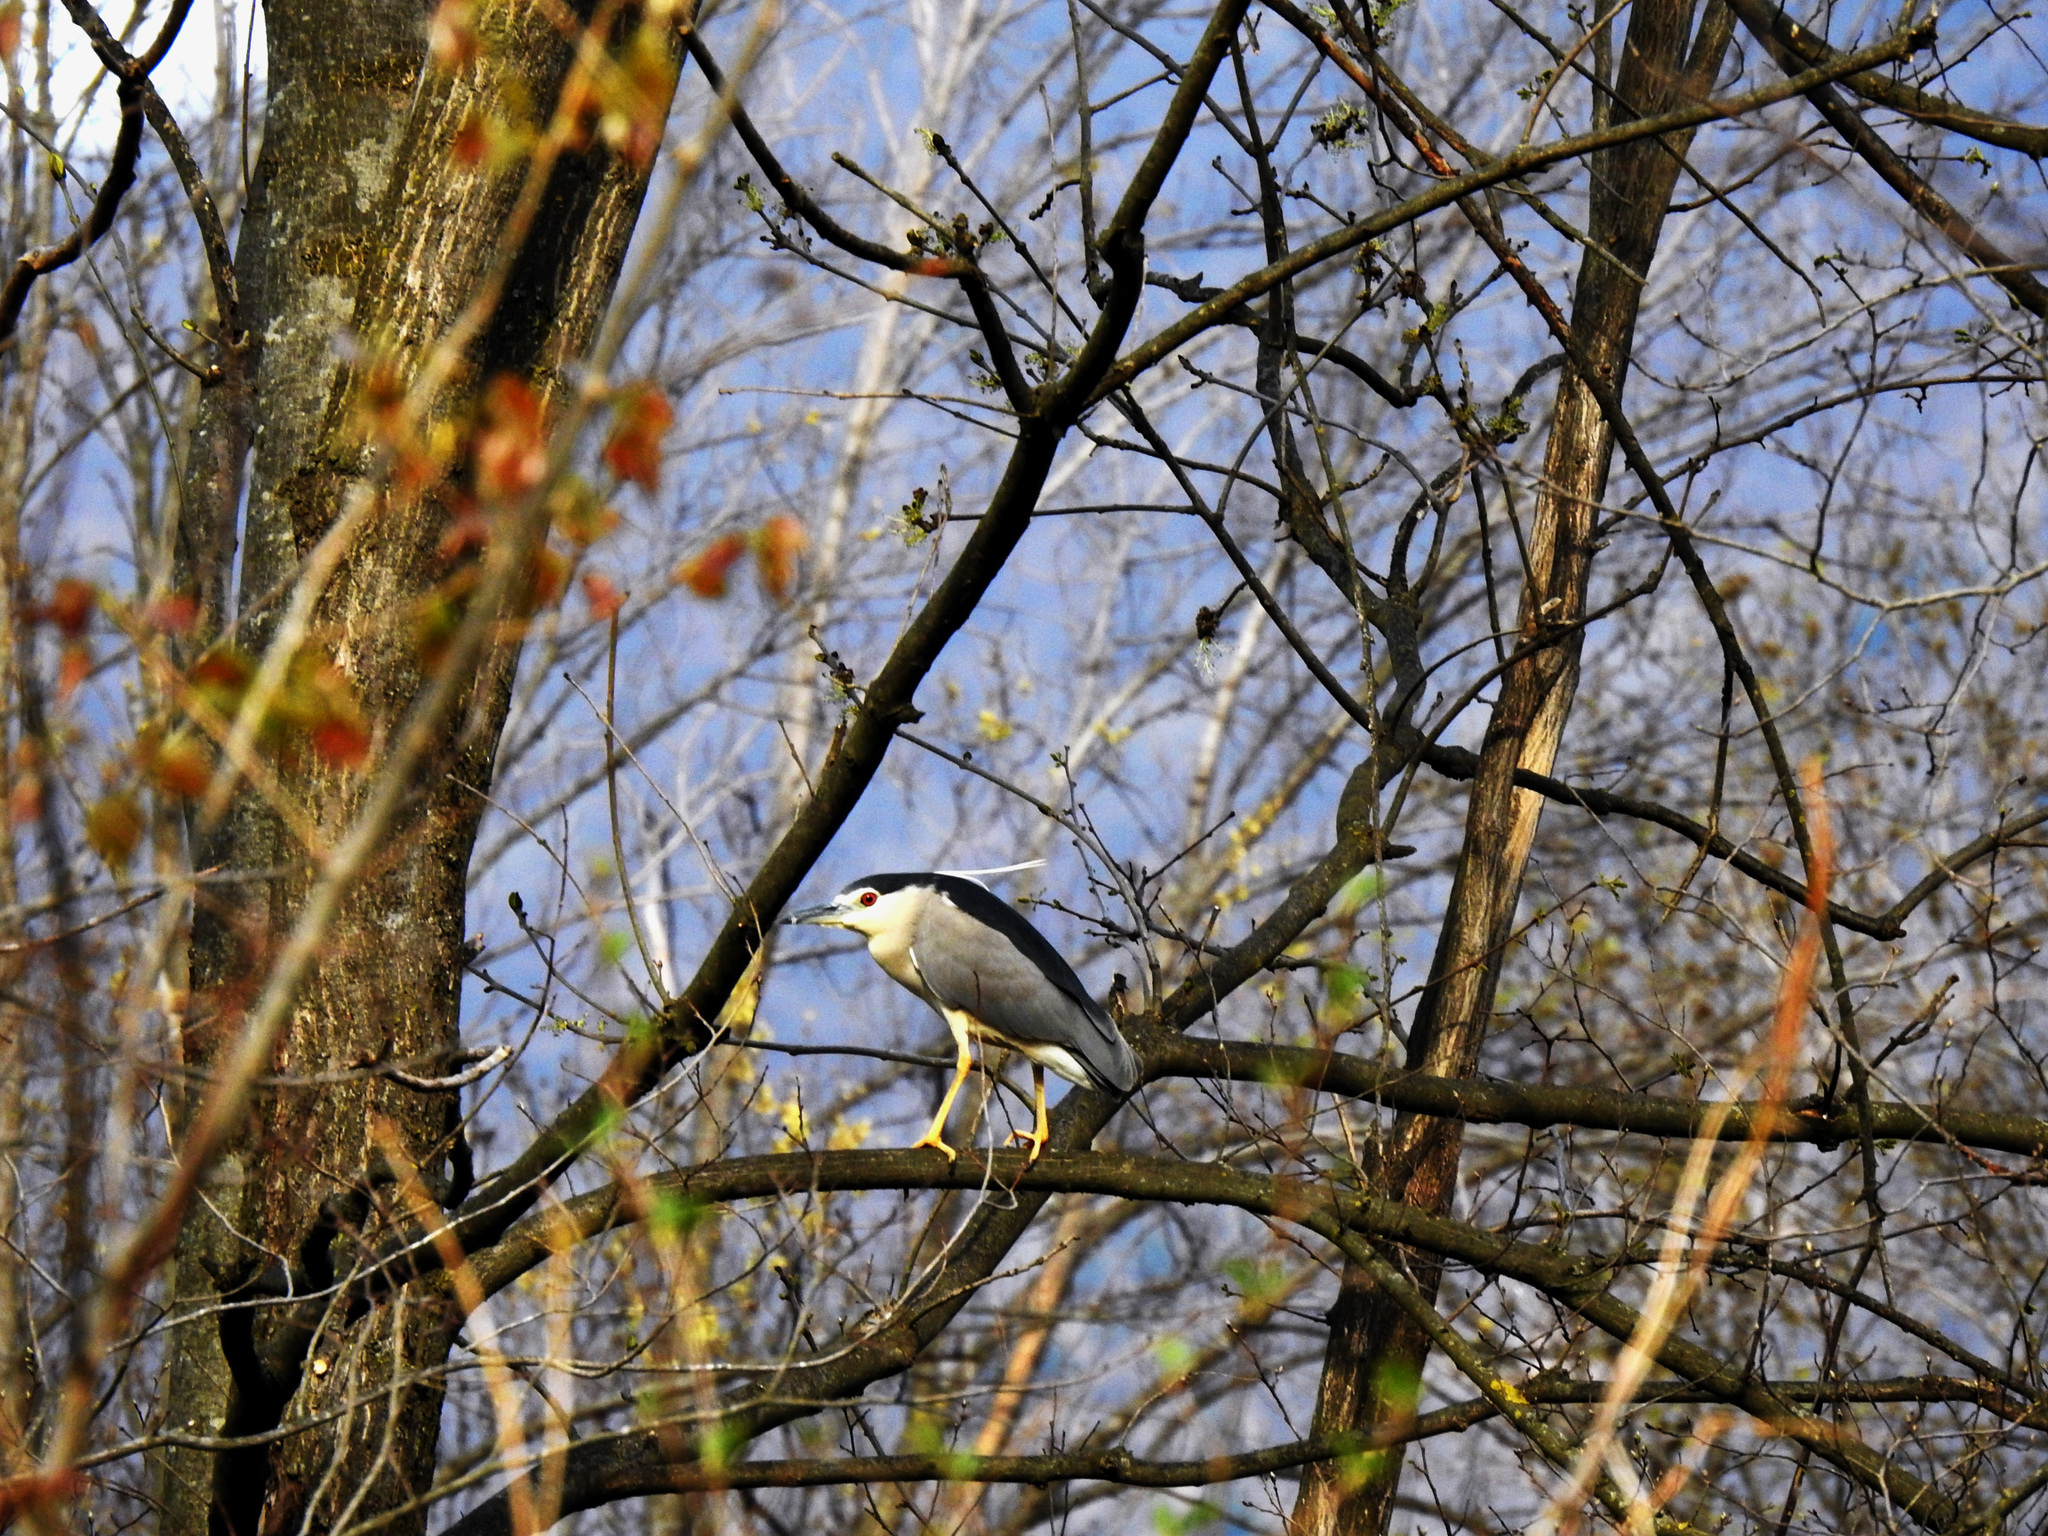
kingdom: Animalia
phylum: Chordata
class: Aves
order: Pelecaniformes
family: Ardeidae
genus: Nycticorax
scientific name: Nycticorax nycticorax
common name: Black-crowned night heron
